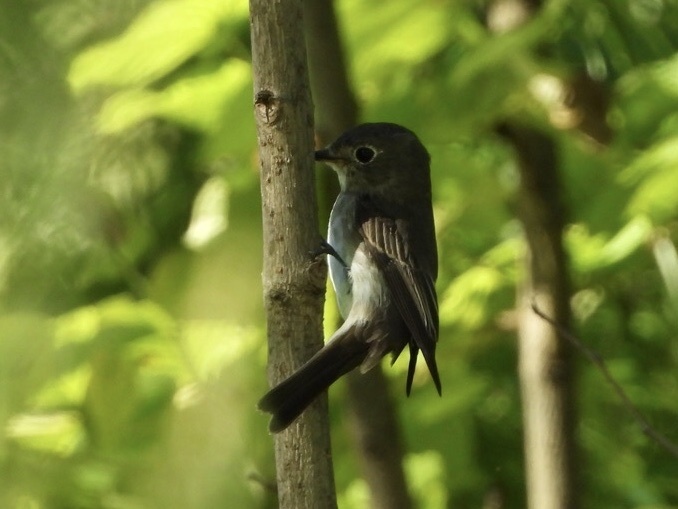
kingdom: Animalia
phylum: Chordata
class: Aves
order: Passeriformes
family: Muscicapidae
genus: Muscicapa
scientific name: Muscicapa latirostris
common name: Asian brown flycatcher
